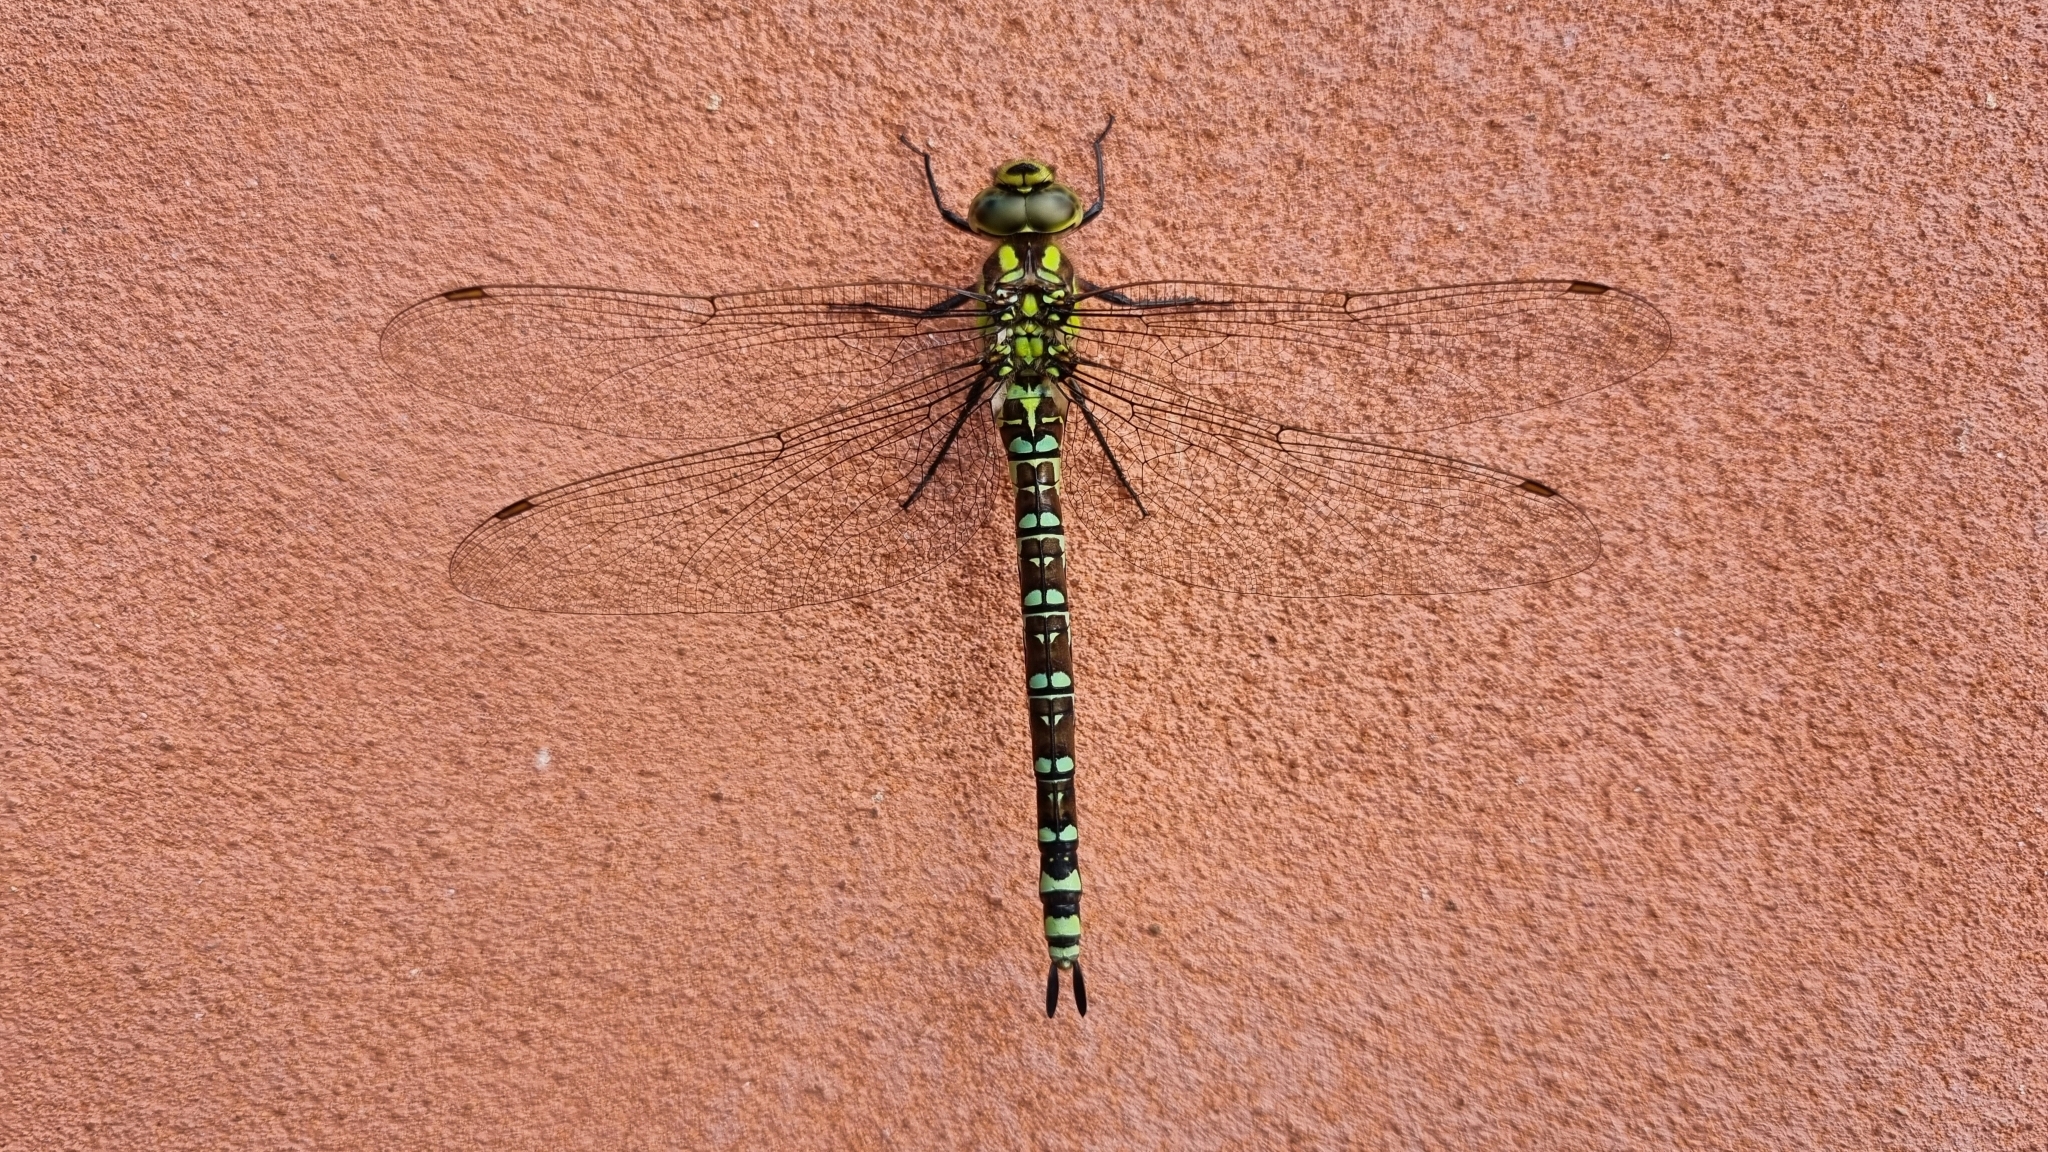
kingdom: Animalia
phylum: Arthropoda
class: Insecta
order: Odonata
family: Aeshnidae
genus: Aeshna
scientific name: Aeshna cyanea
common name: Southern hawker
